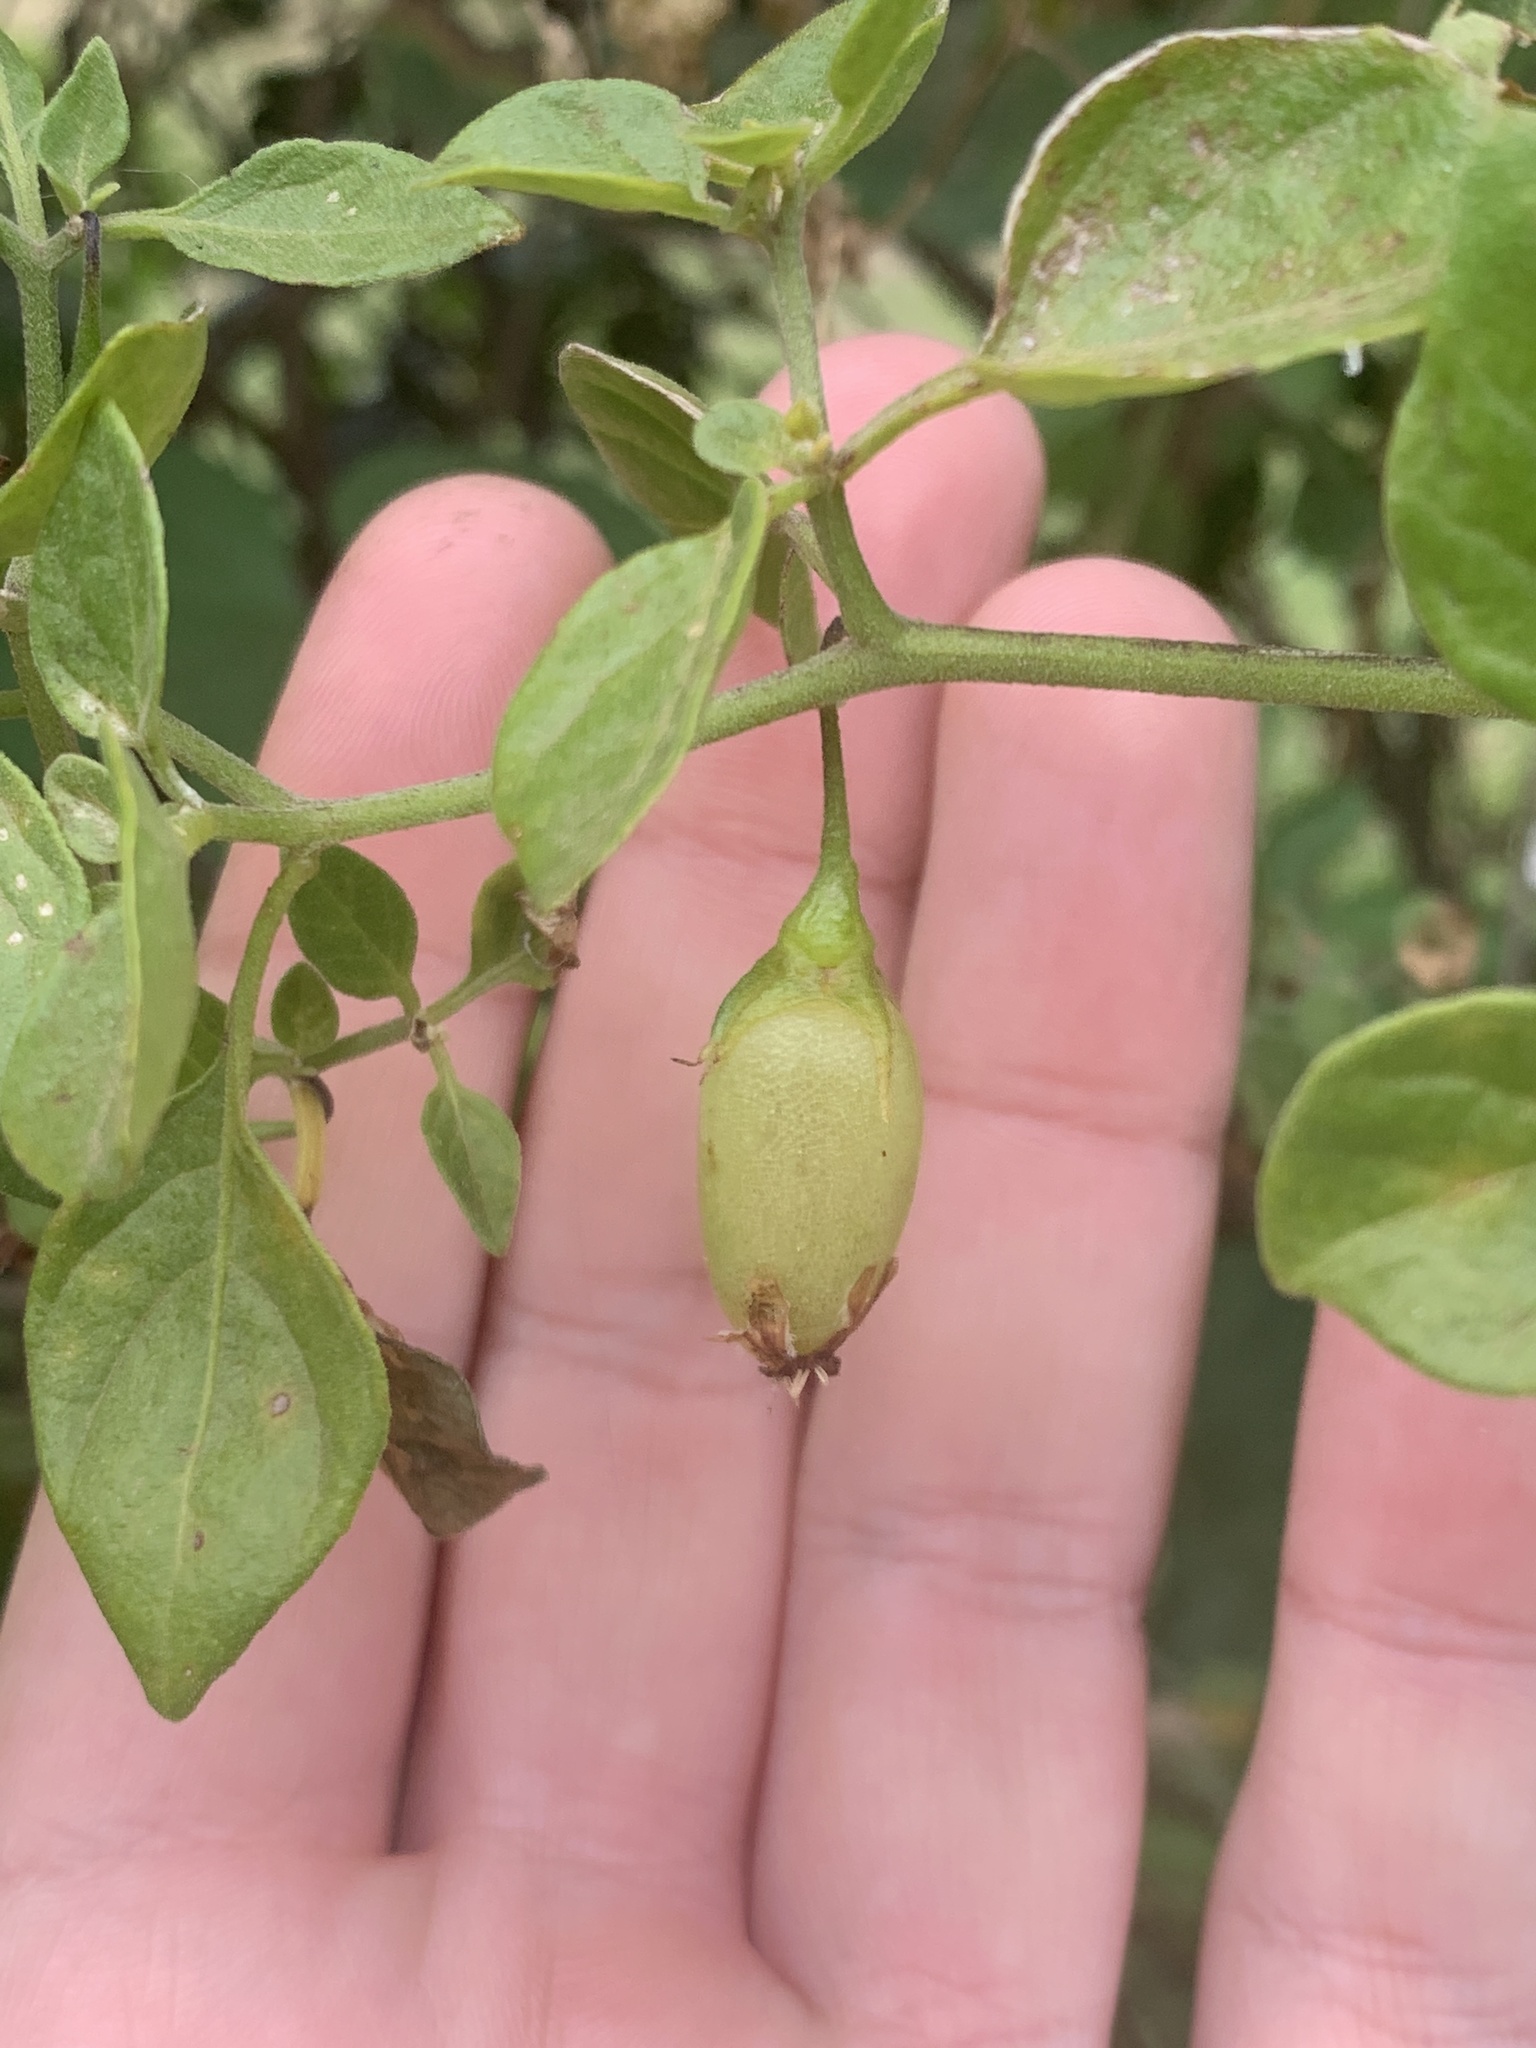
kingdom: Plantae
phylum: Tracheophyta
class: Magnoliopsida
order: Solanales
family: Solanaceae
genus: Salpichroa
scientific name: Salpichroa origanifolia
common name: Lily-of-the-valley-vine
